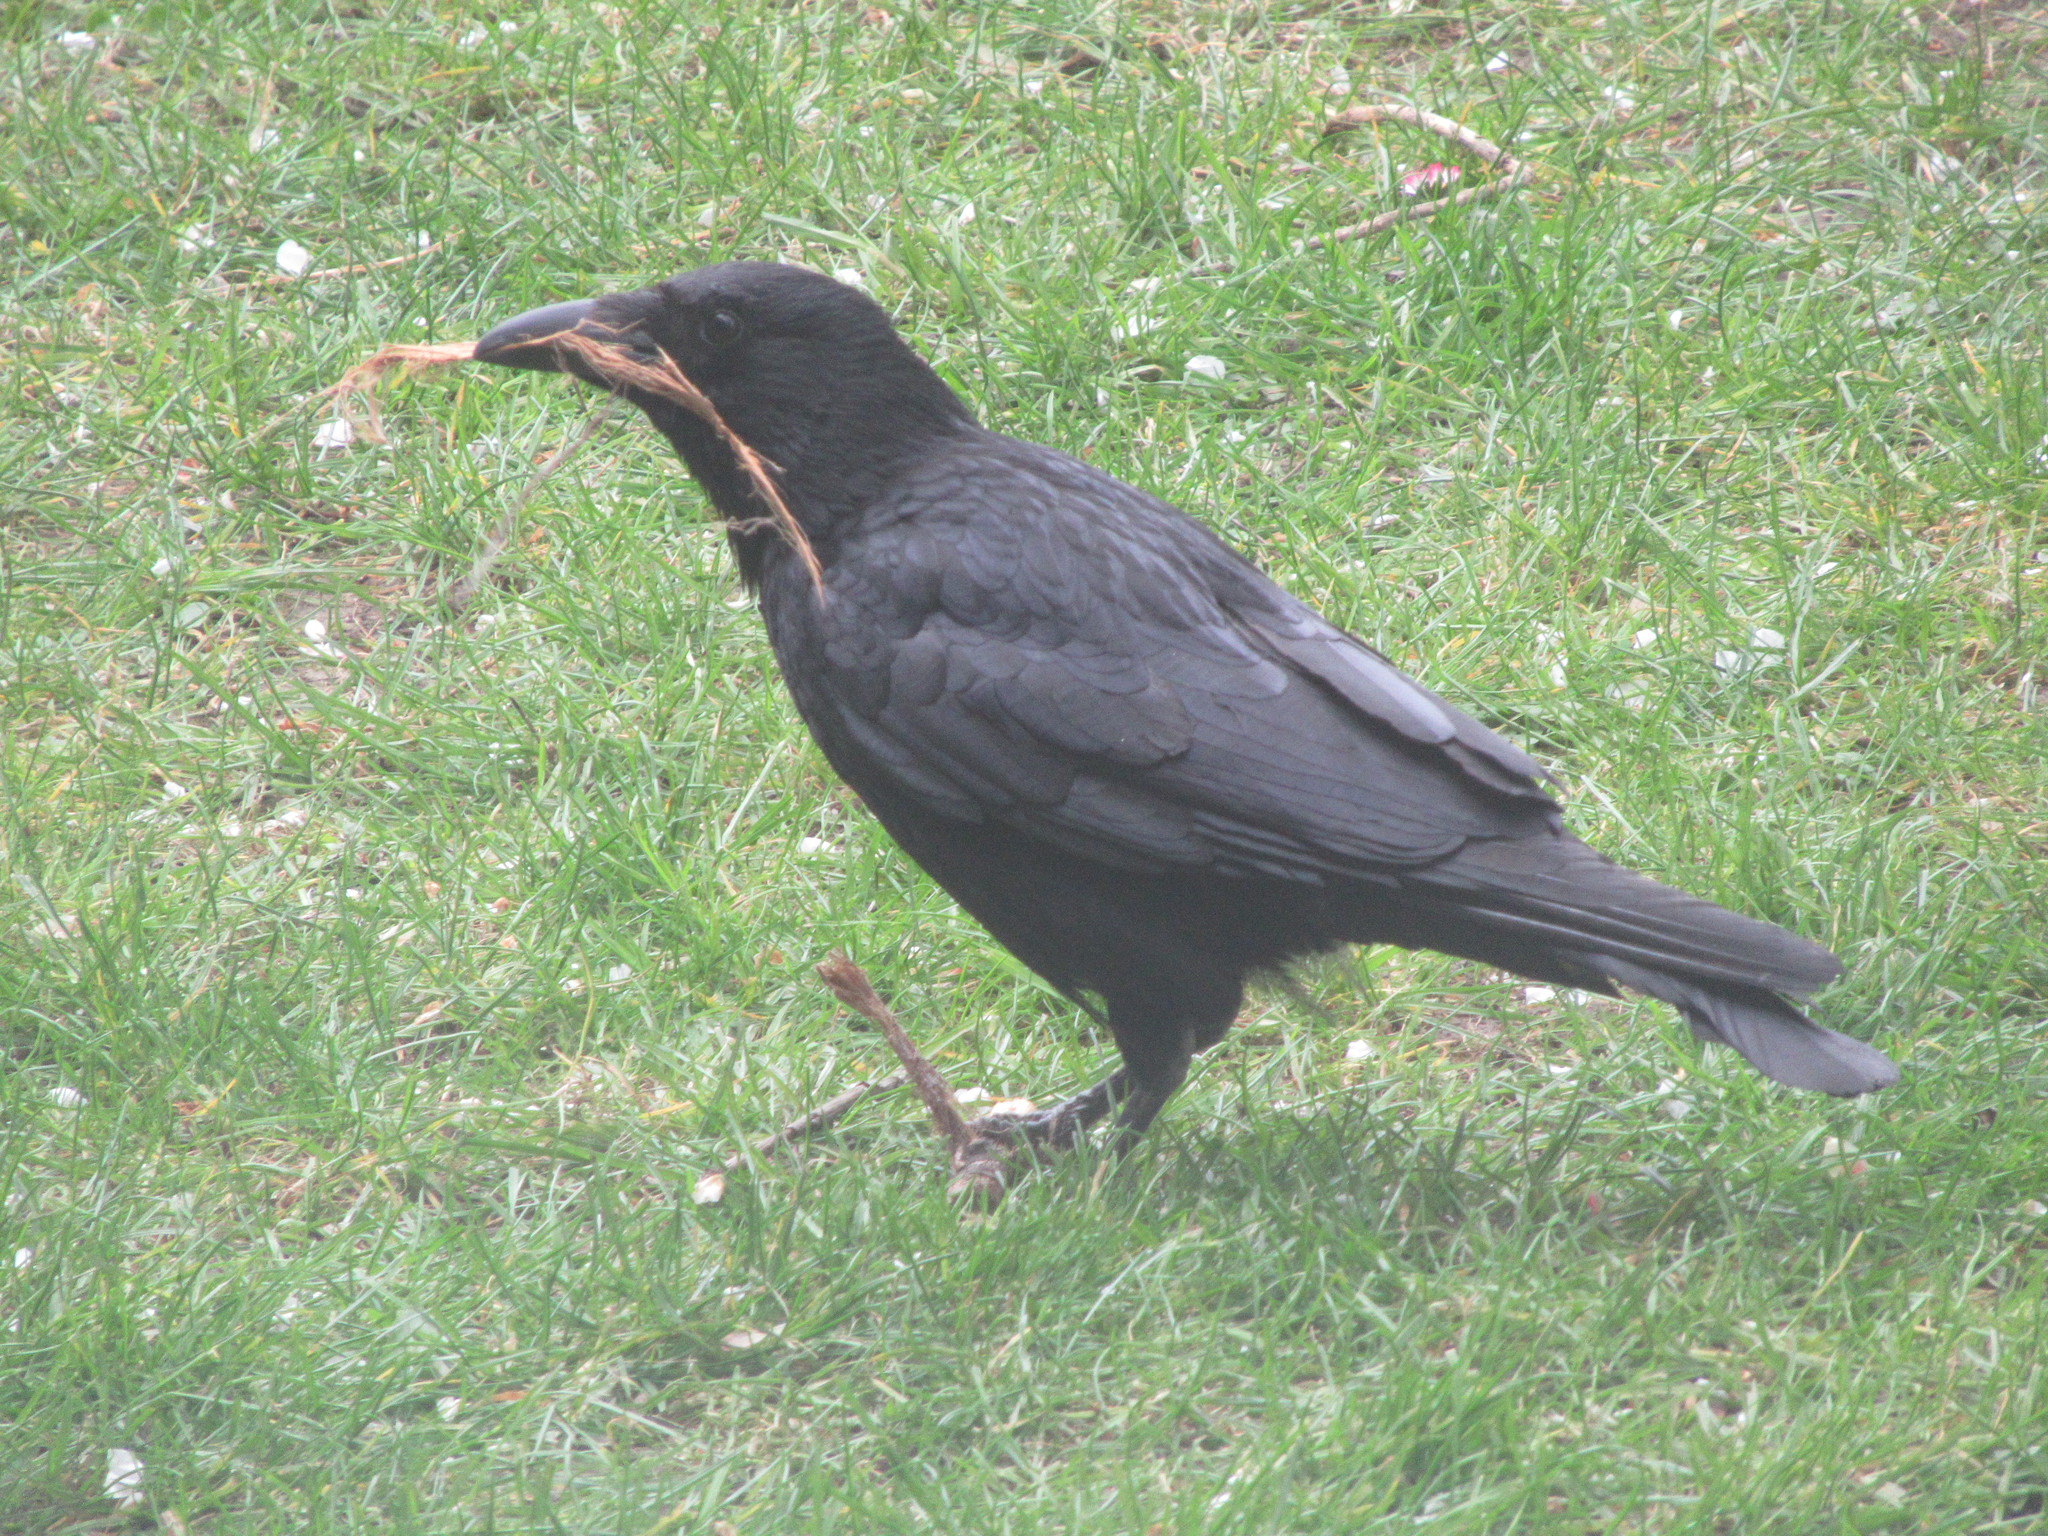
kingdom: Animalia
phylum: Chordata
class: Aves
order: Passeriformes
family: Corvidae
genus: Corvus
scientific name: Corvus corone
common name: Carrion crow
